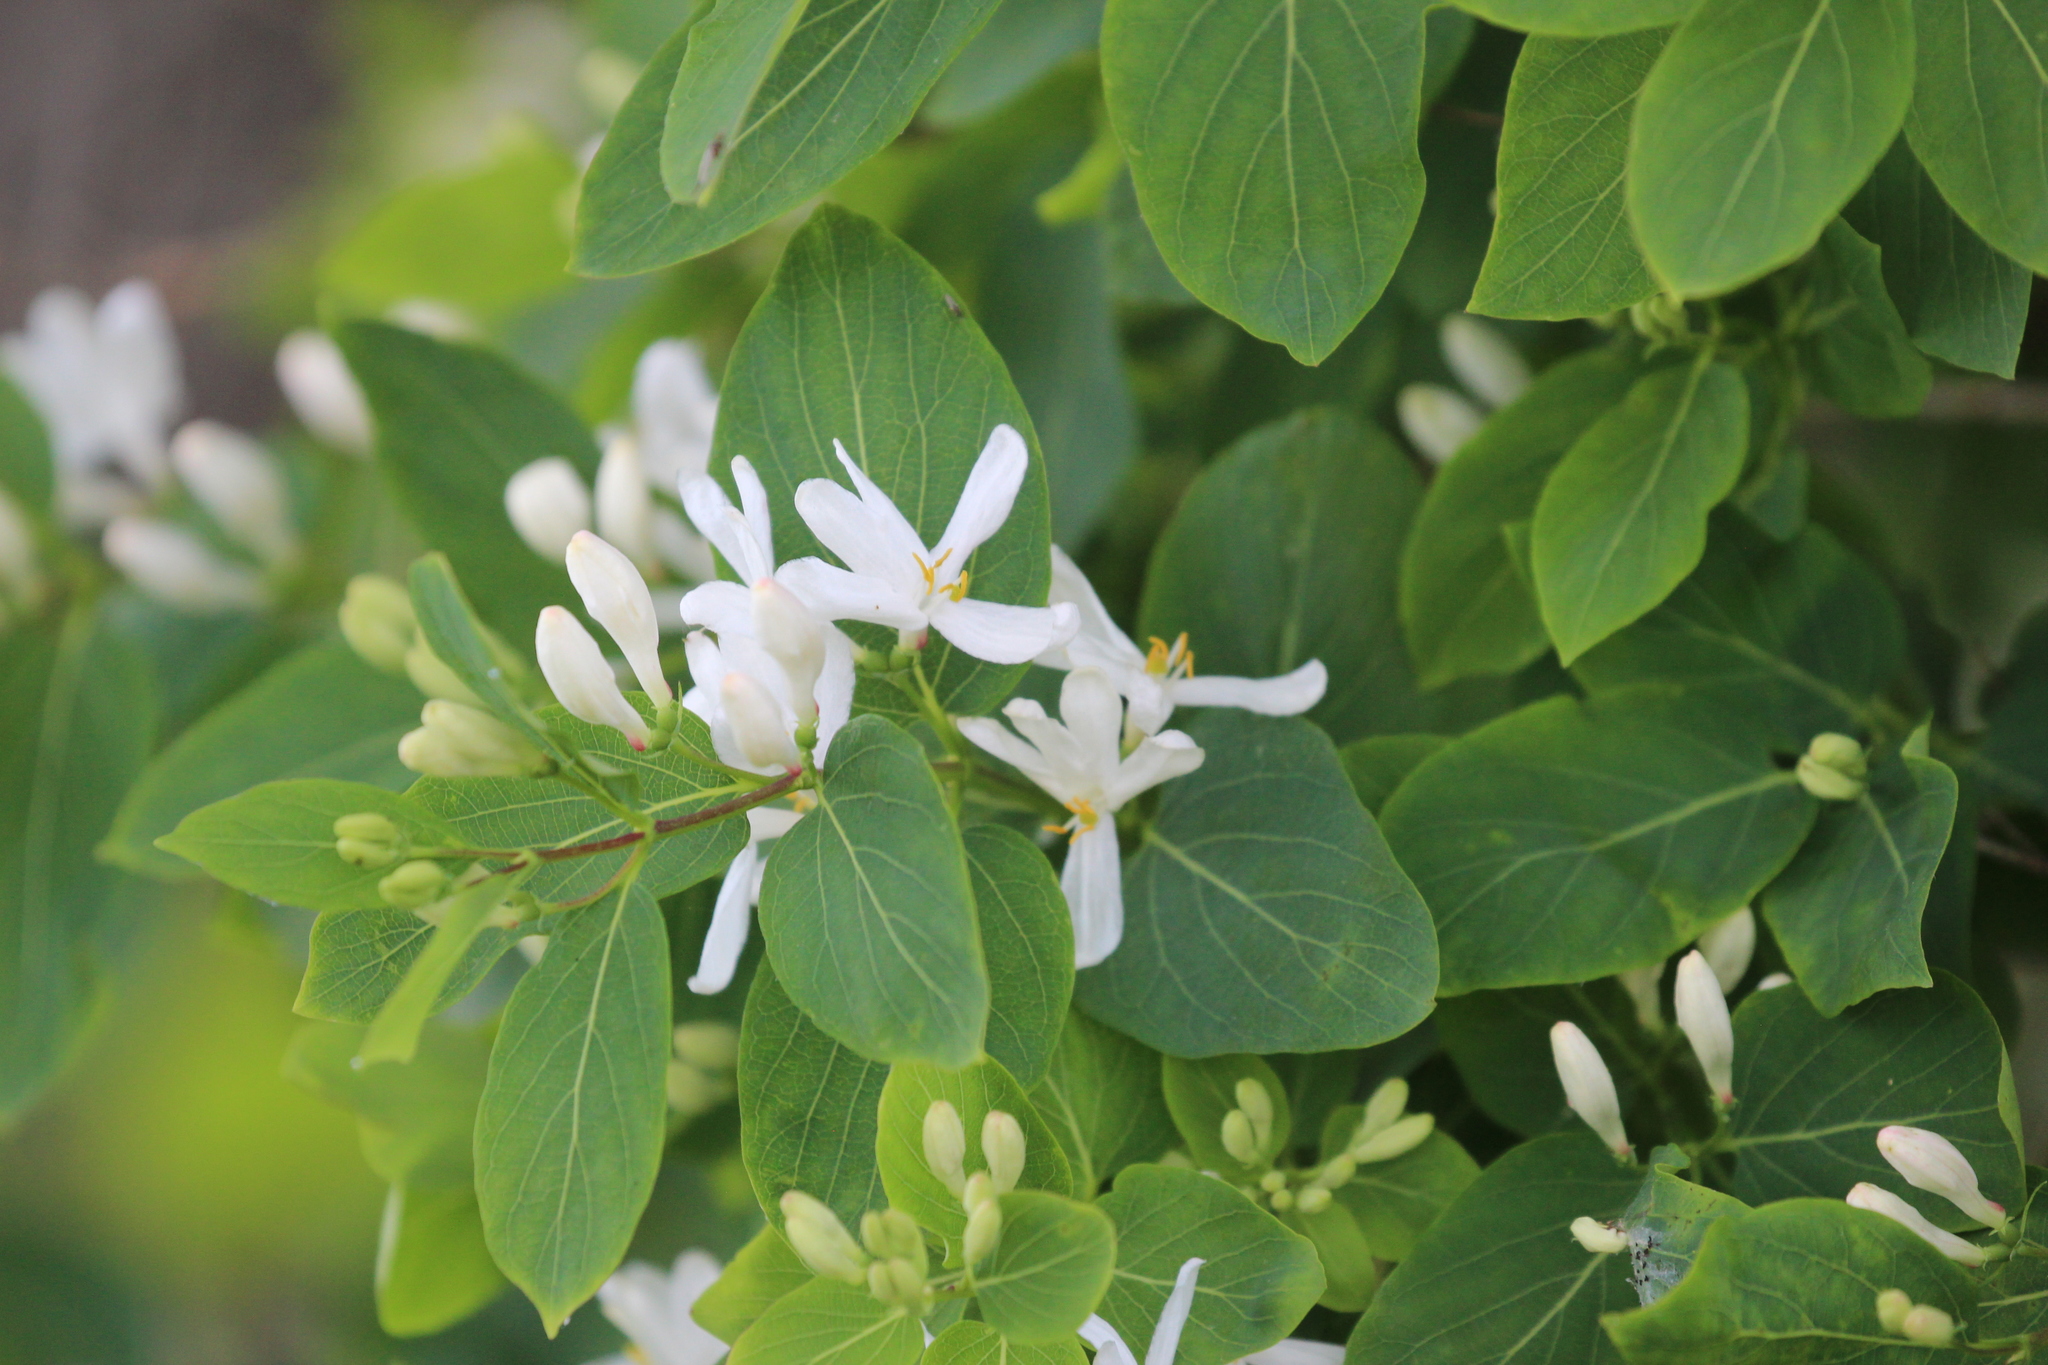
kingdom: Plantae
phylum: Tracheophyta
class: Magnoliopsida
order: Dipsacales
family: Caprifoliaceae
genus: Lonicera
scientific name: Lonicera tatarica
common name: Tatarian honeysuckle
